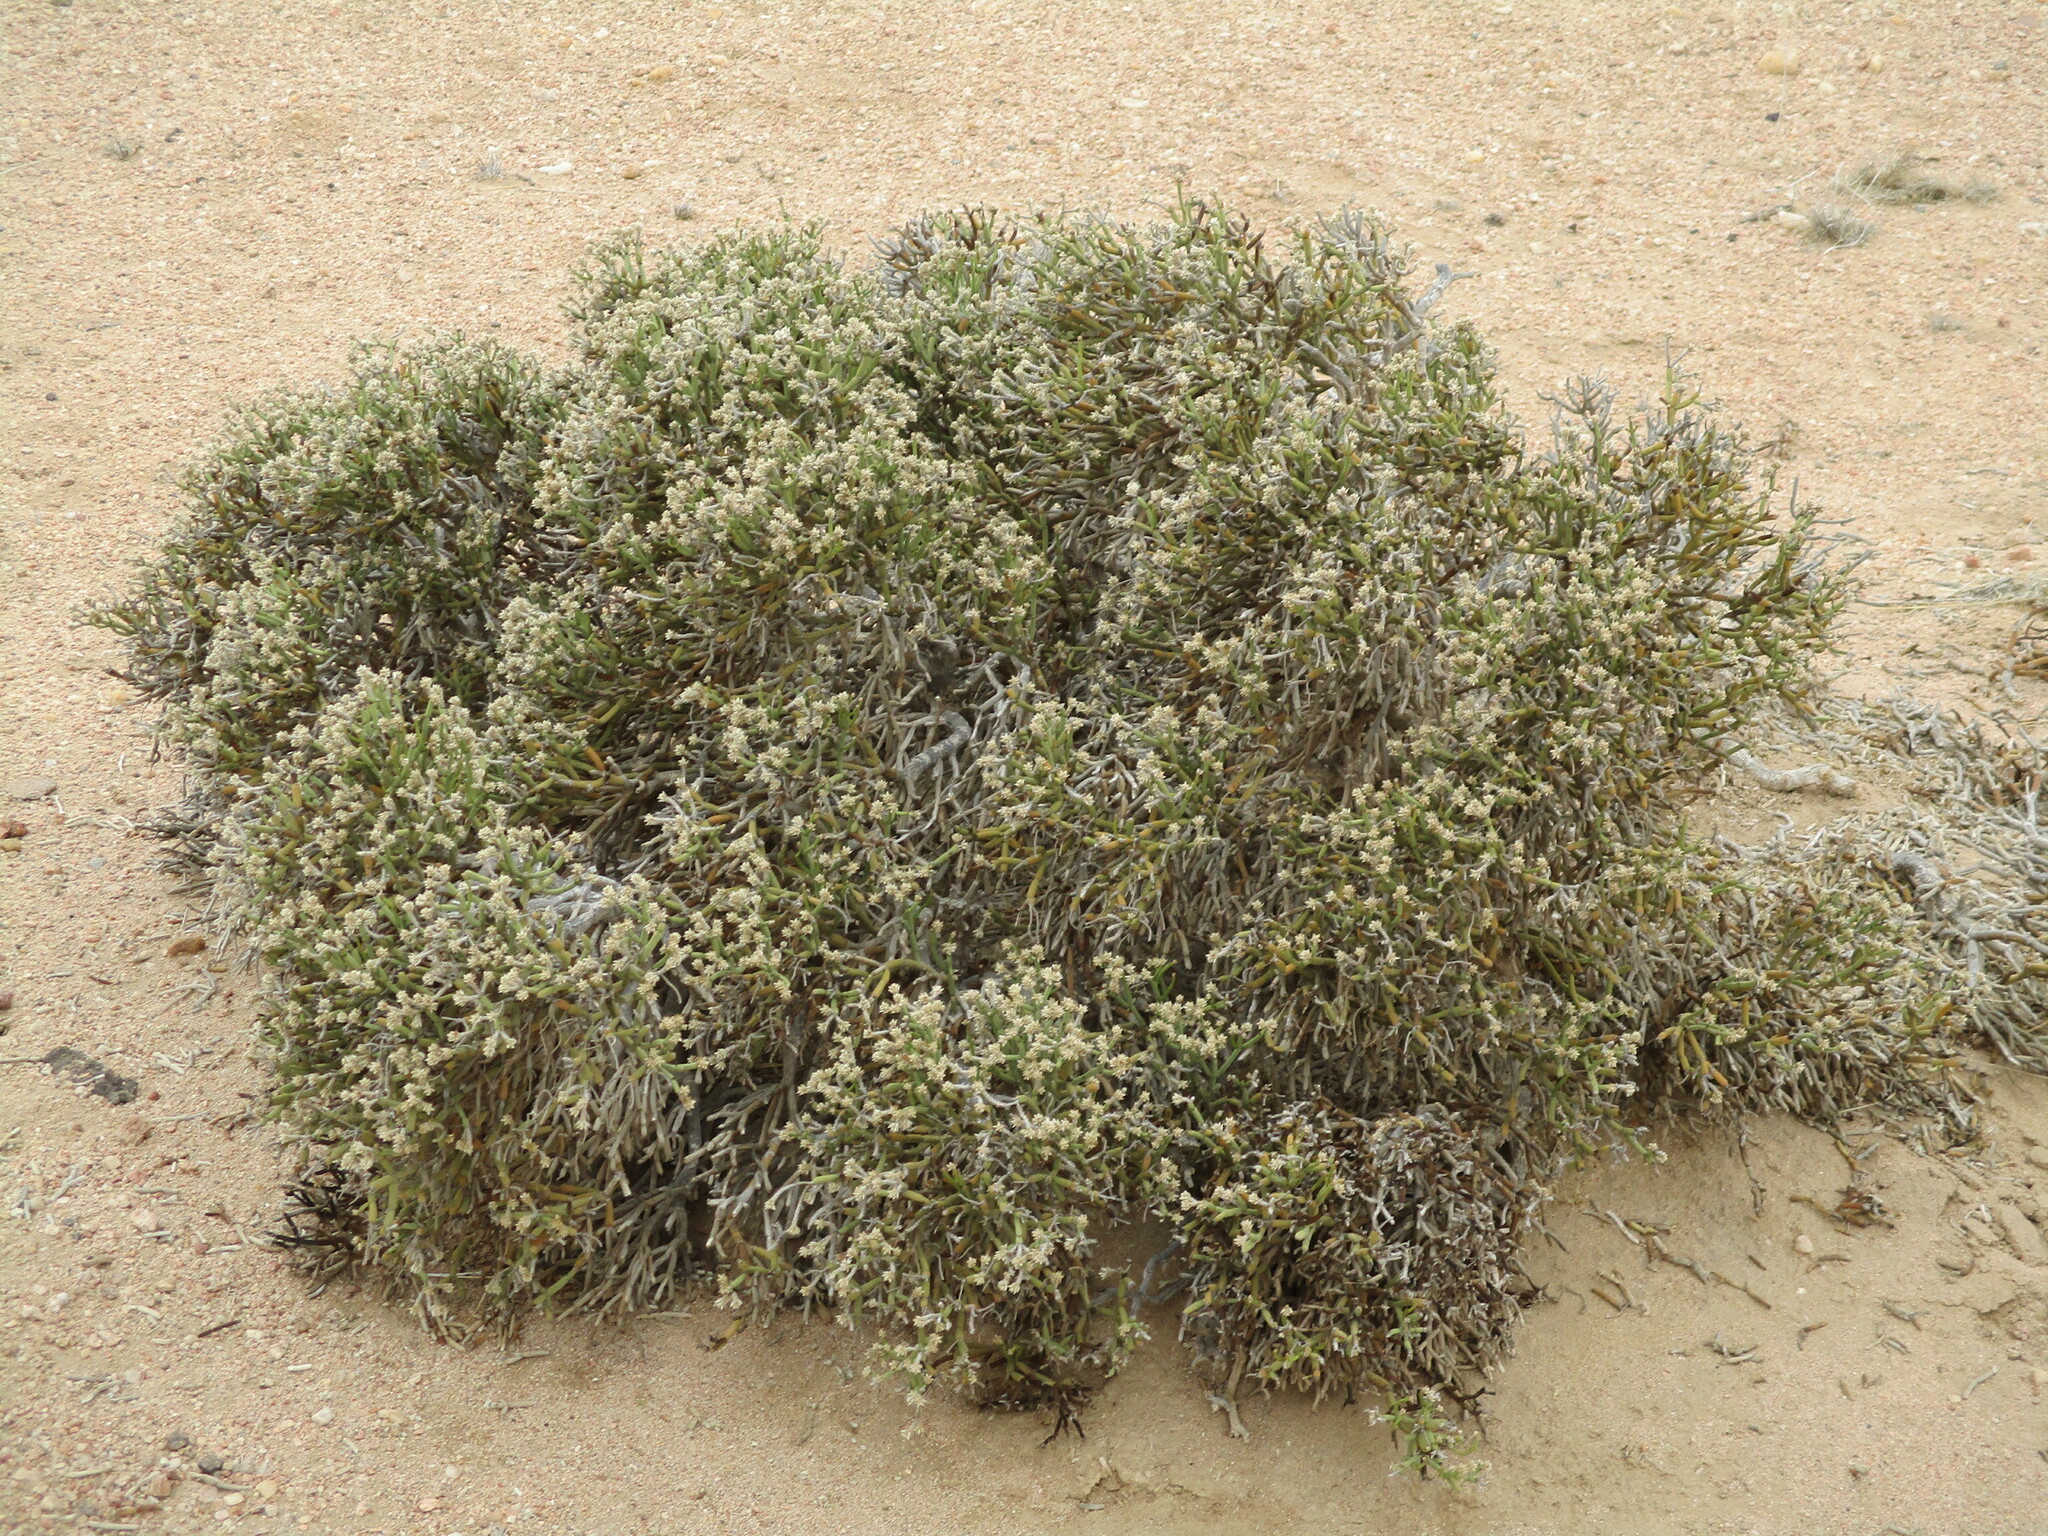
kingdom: Plantae
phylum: Tracheophyta
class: Magnoliopsida
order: Caryophyllales
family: Amaranthaceae
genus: Arthraerva
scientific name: Arthraerva leubnitziae
